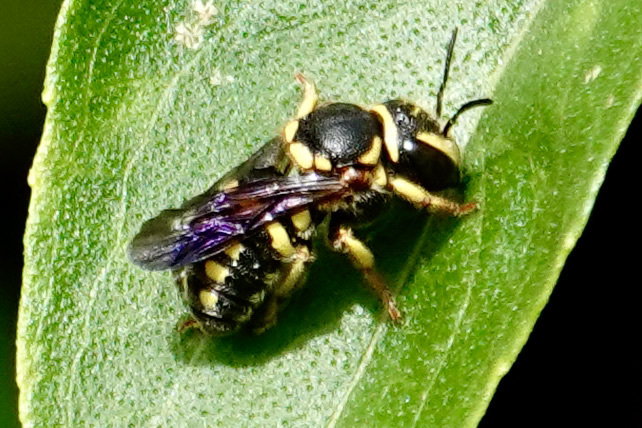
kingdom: Animalia
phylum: Arthropoda
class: Insecta
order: Hymenoptera
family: Megachilidae
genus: Anthidiellum
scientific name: Anthidiellum notatum
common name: Northern rotund-resin bee
